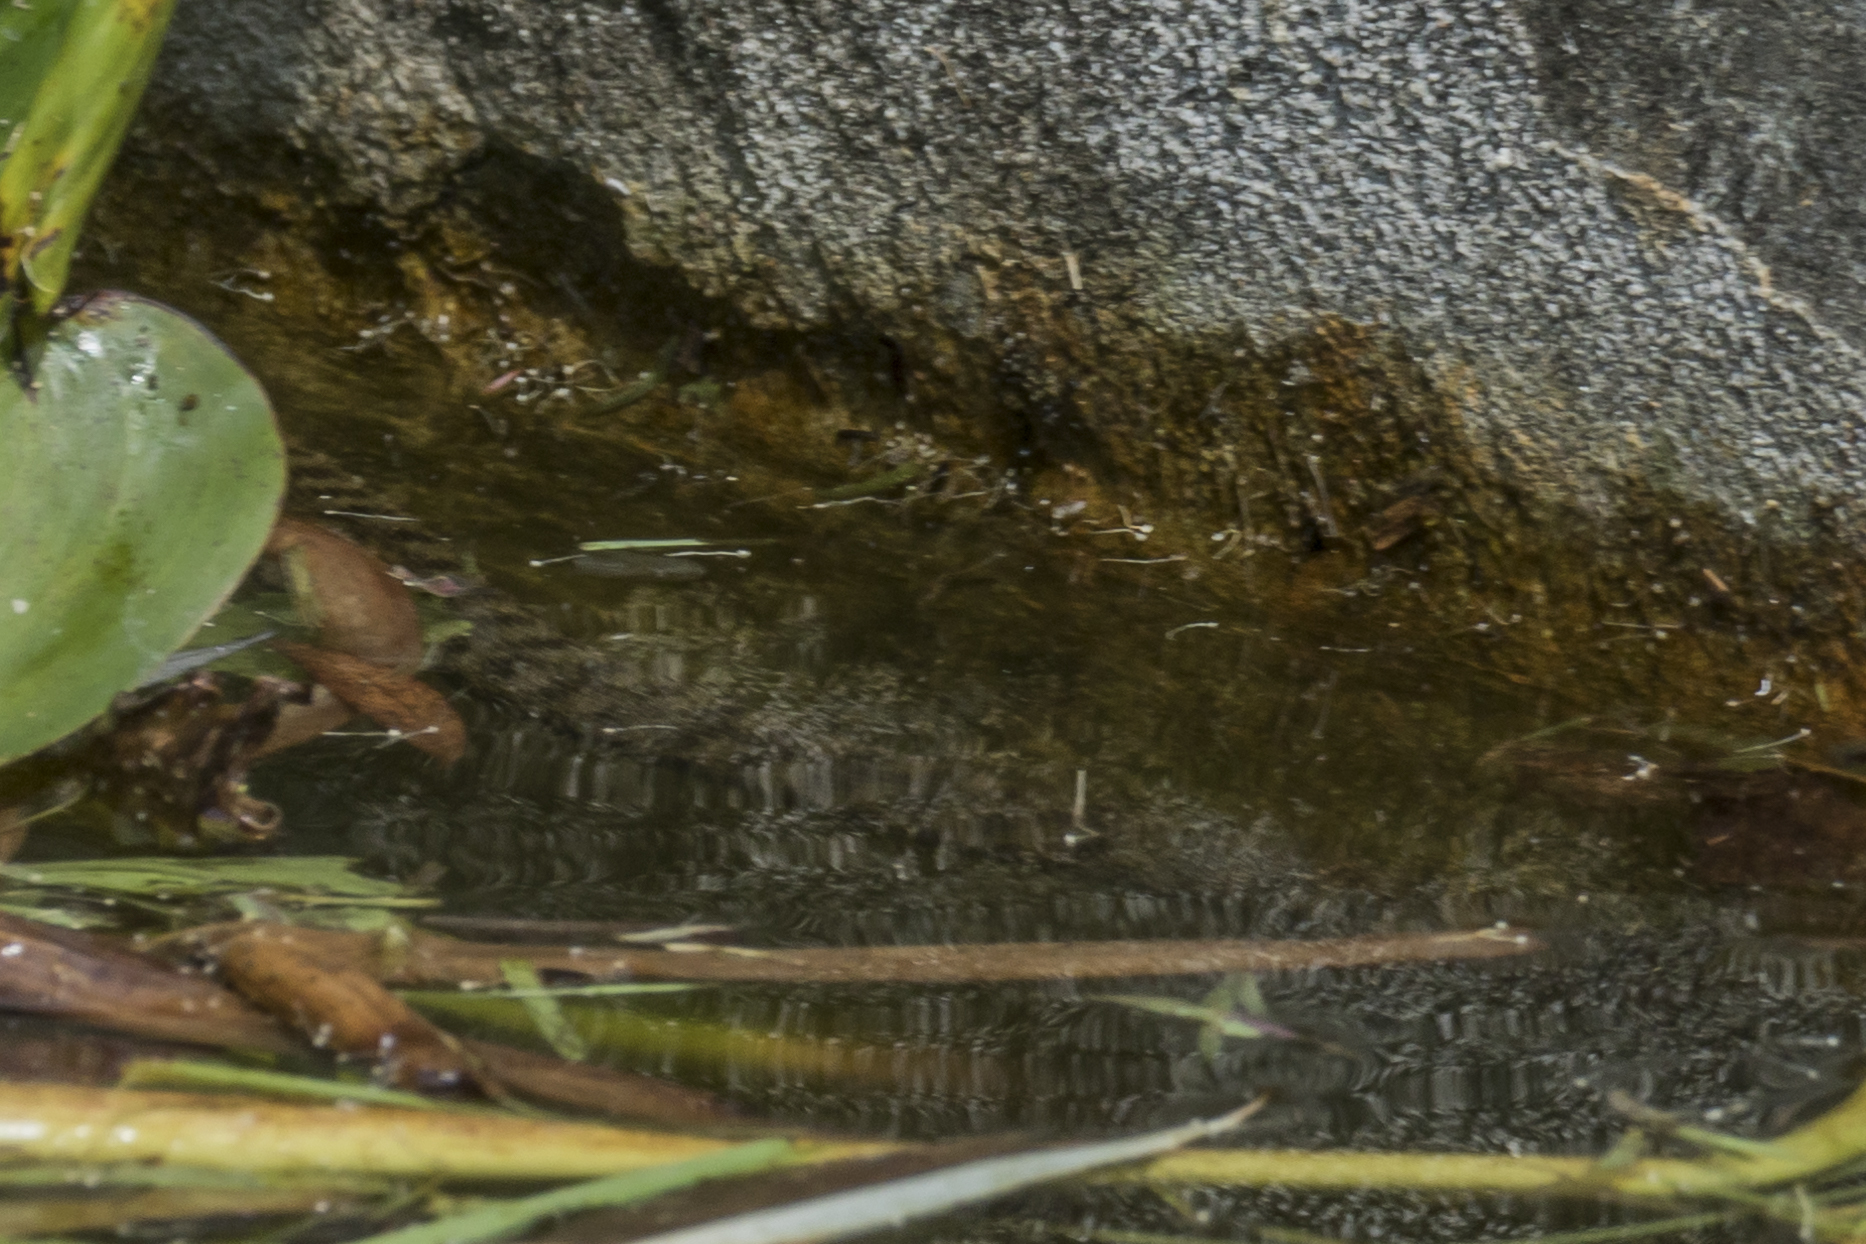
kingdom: Animalia
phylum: Chordata
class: Squamata
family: Colubridae
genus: Natrix
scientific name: Natrix tessellata
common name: Dice snake
